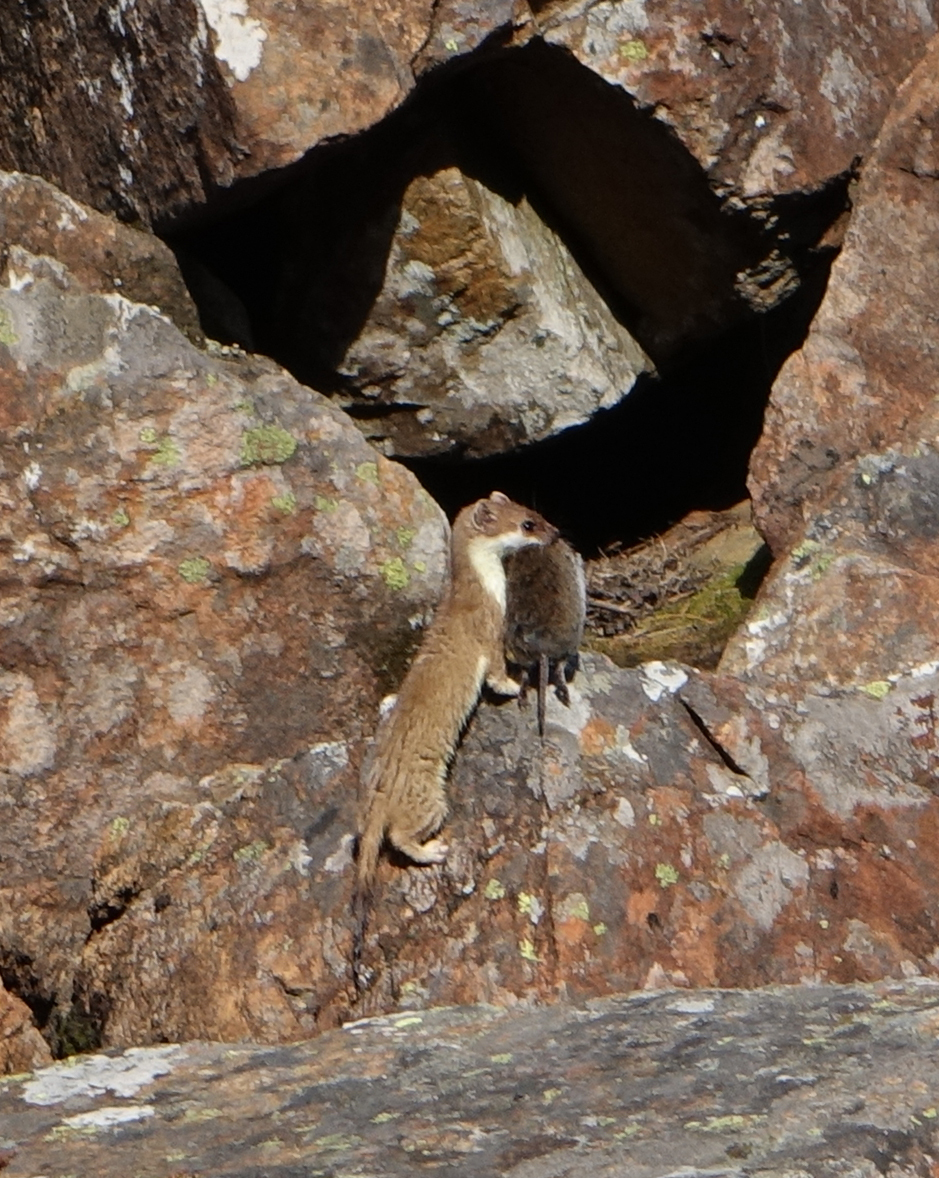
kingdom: Animalia
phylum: Chordata
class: Mammalia
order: Carnivora
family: Mustelidae
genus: Mustela
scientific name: Mustela erminea
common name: Stoat
